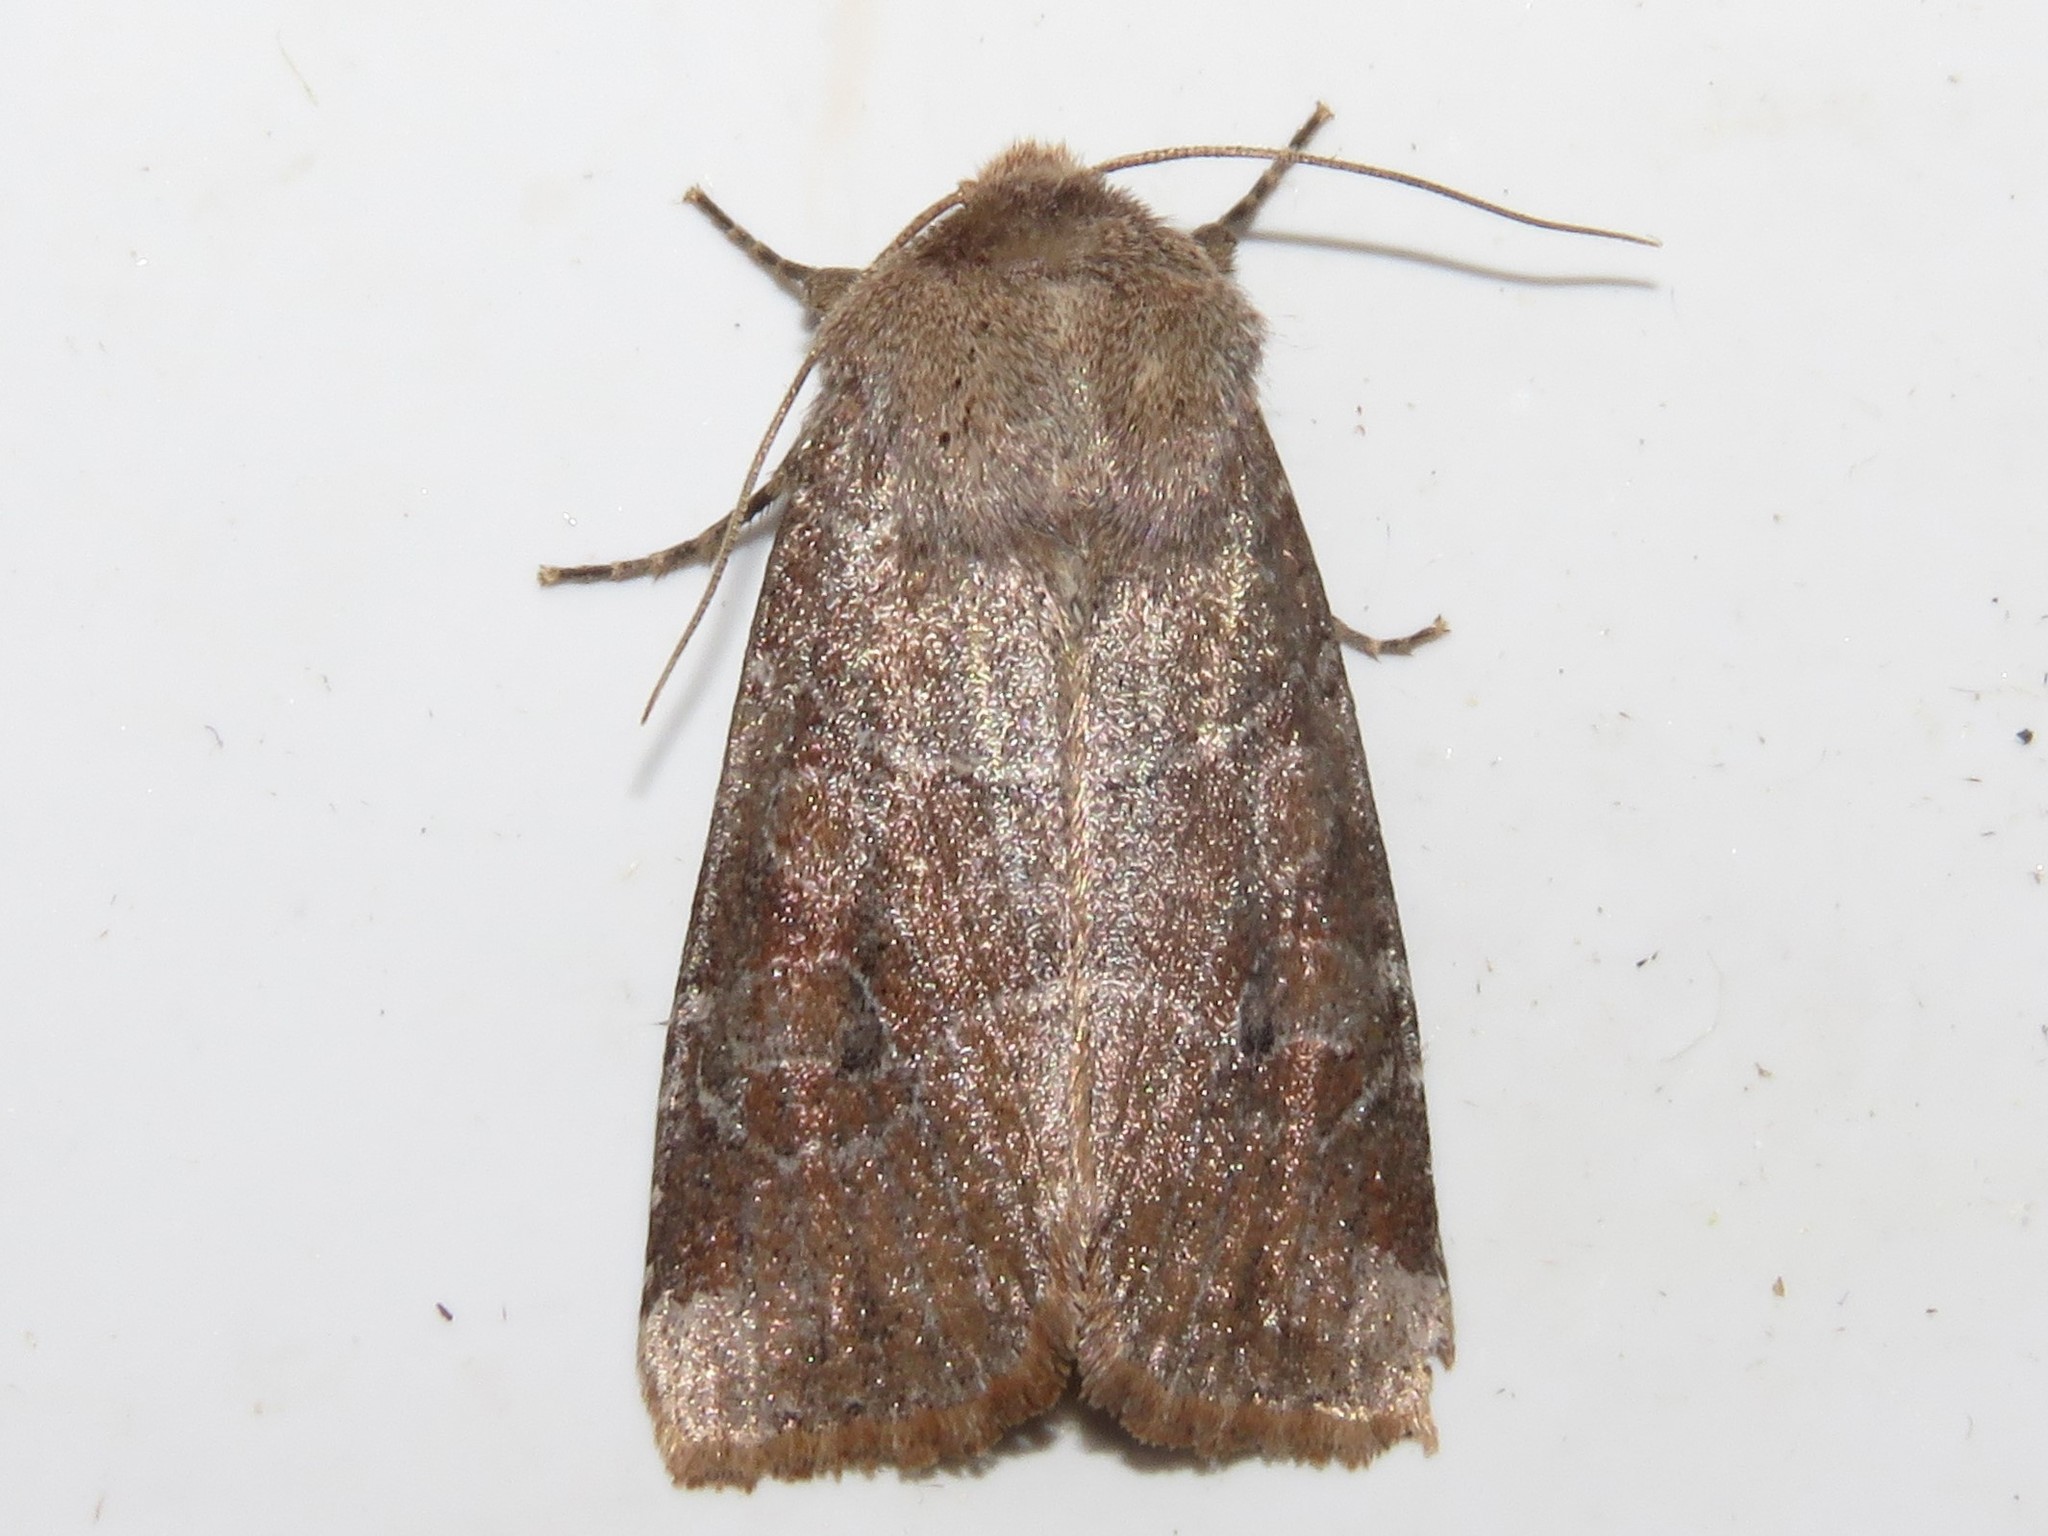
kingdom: Animalia
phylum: Arthropoda
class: Insecta
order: Lepidoptera
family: Noctuidae
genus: Crocigrapha
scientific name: Crocigrapha normani
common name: Norman's quaker
